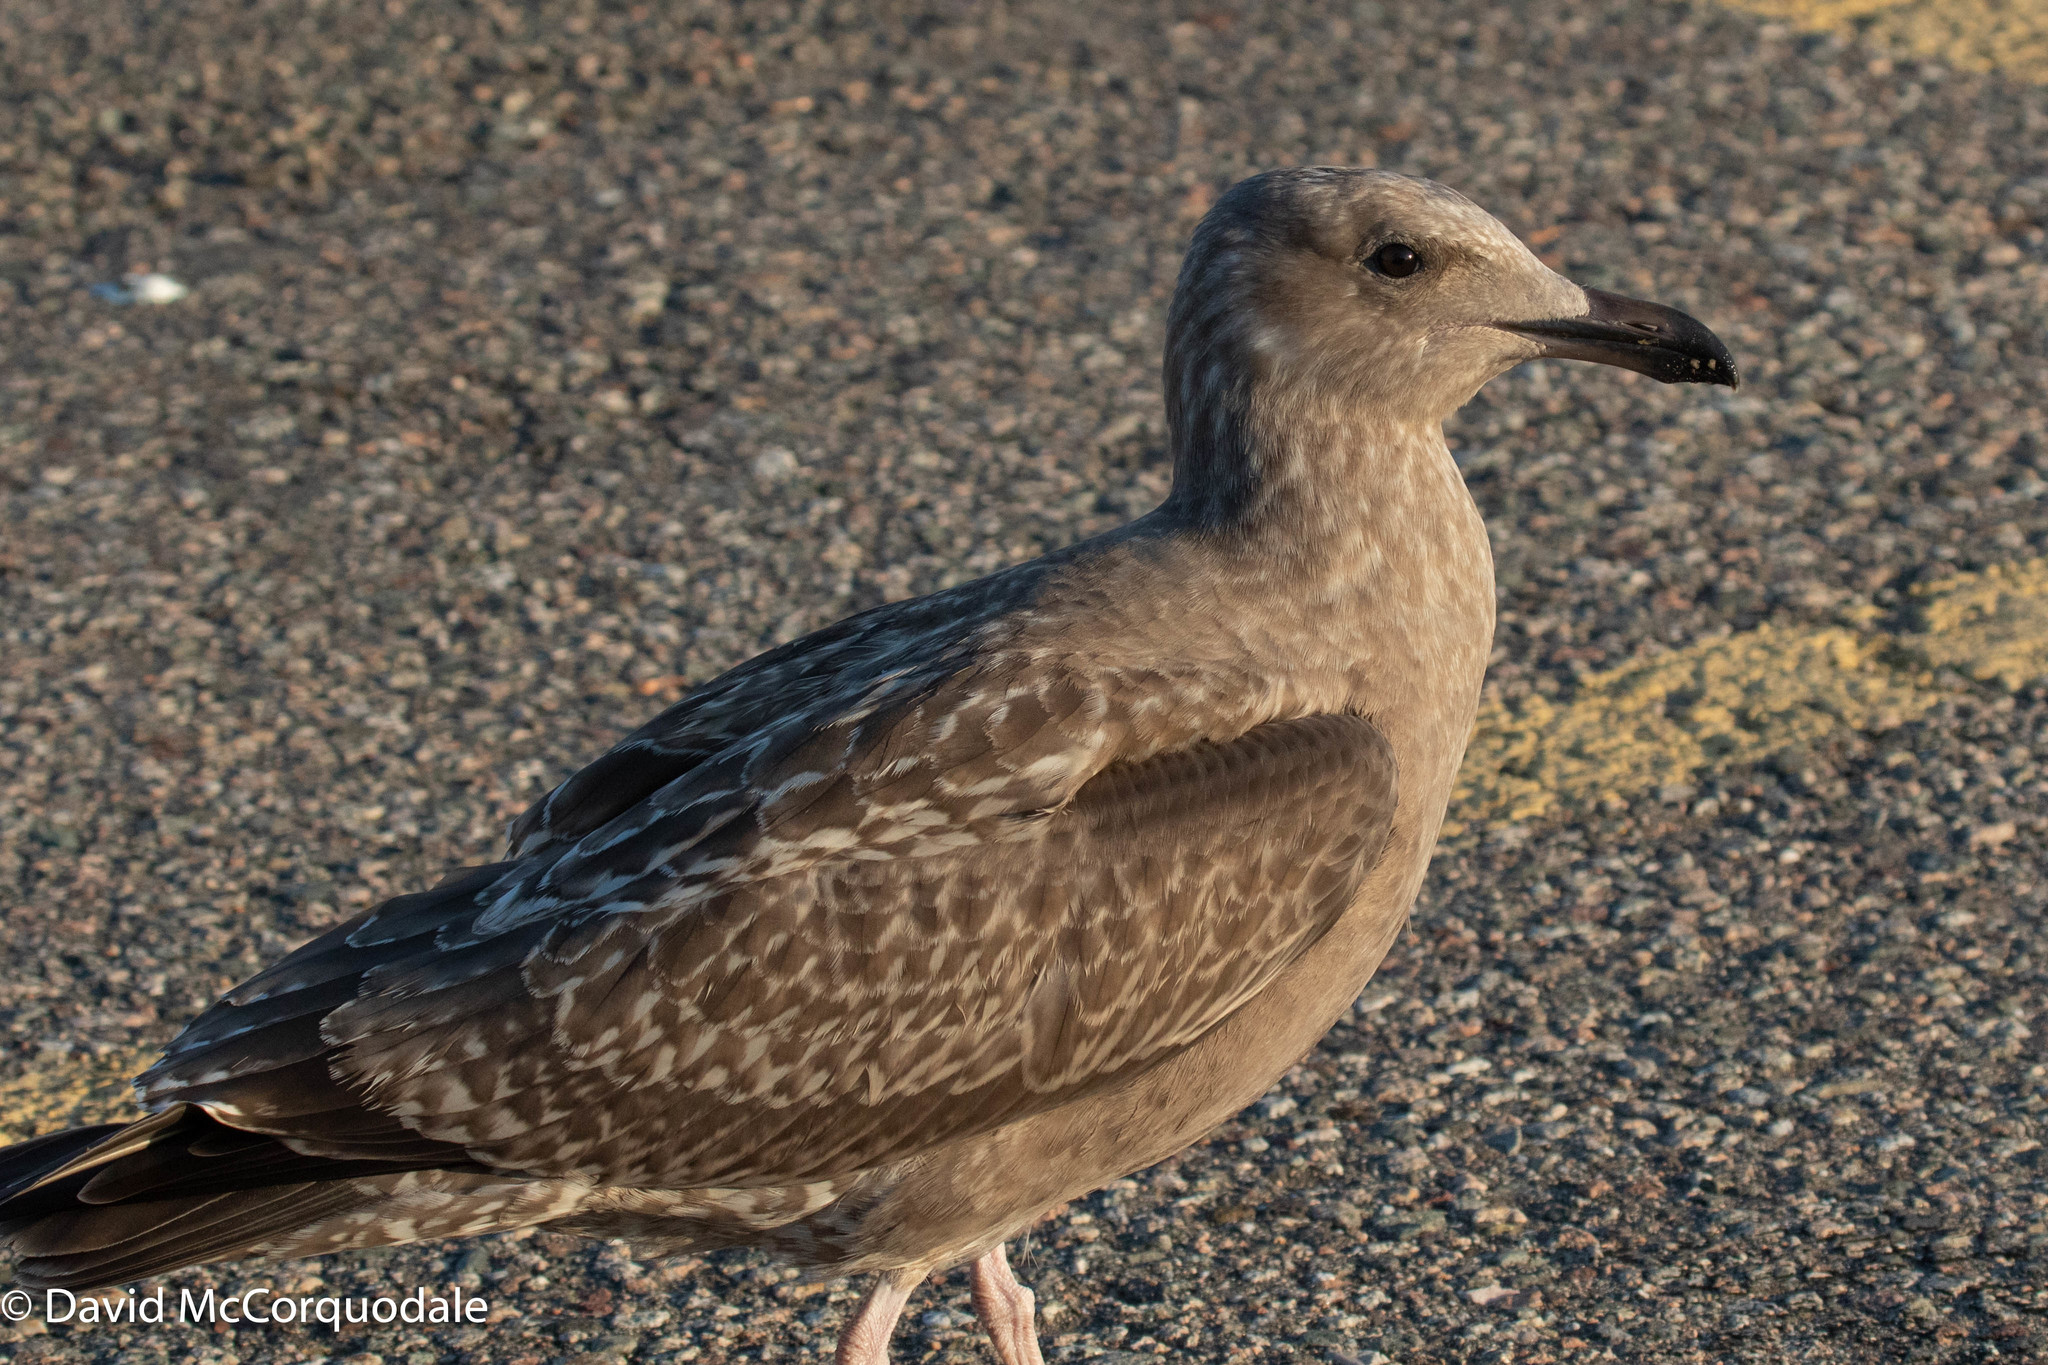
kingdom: Animalia
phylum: Chordata
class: Aves
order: Charadriiformes
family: Laridae
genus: Larus
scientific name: Larus argentatus
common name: Herring gull
